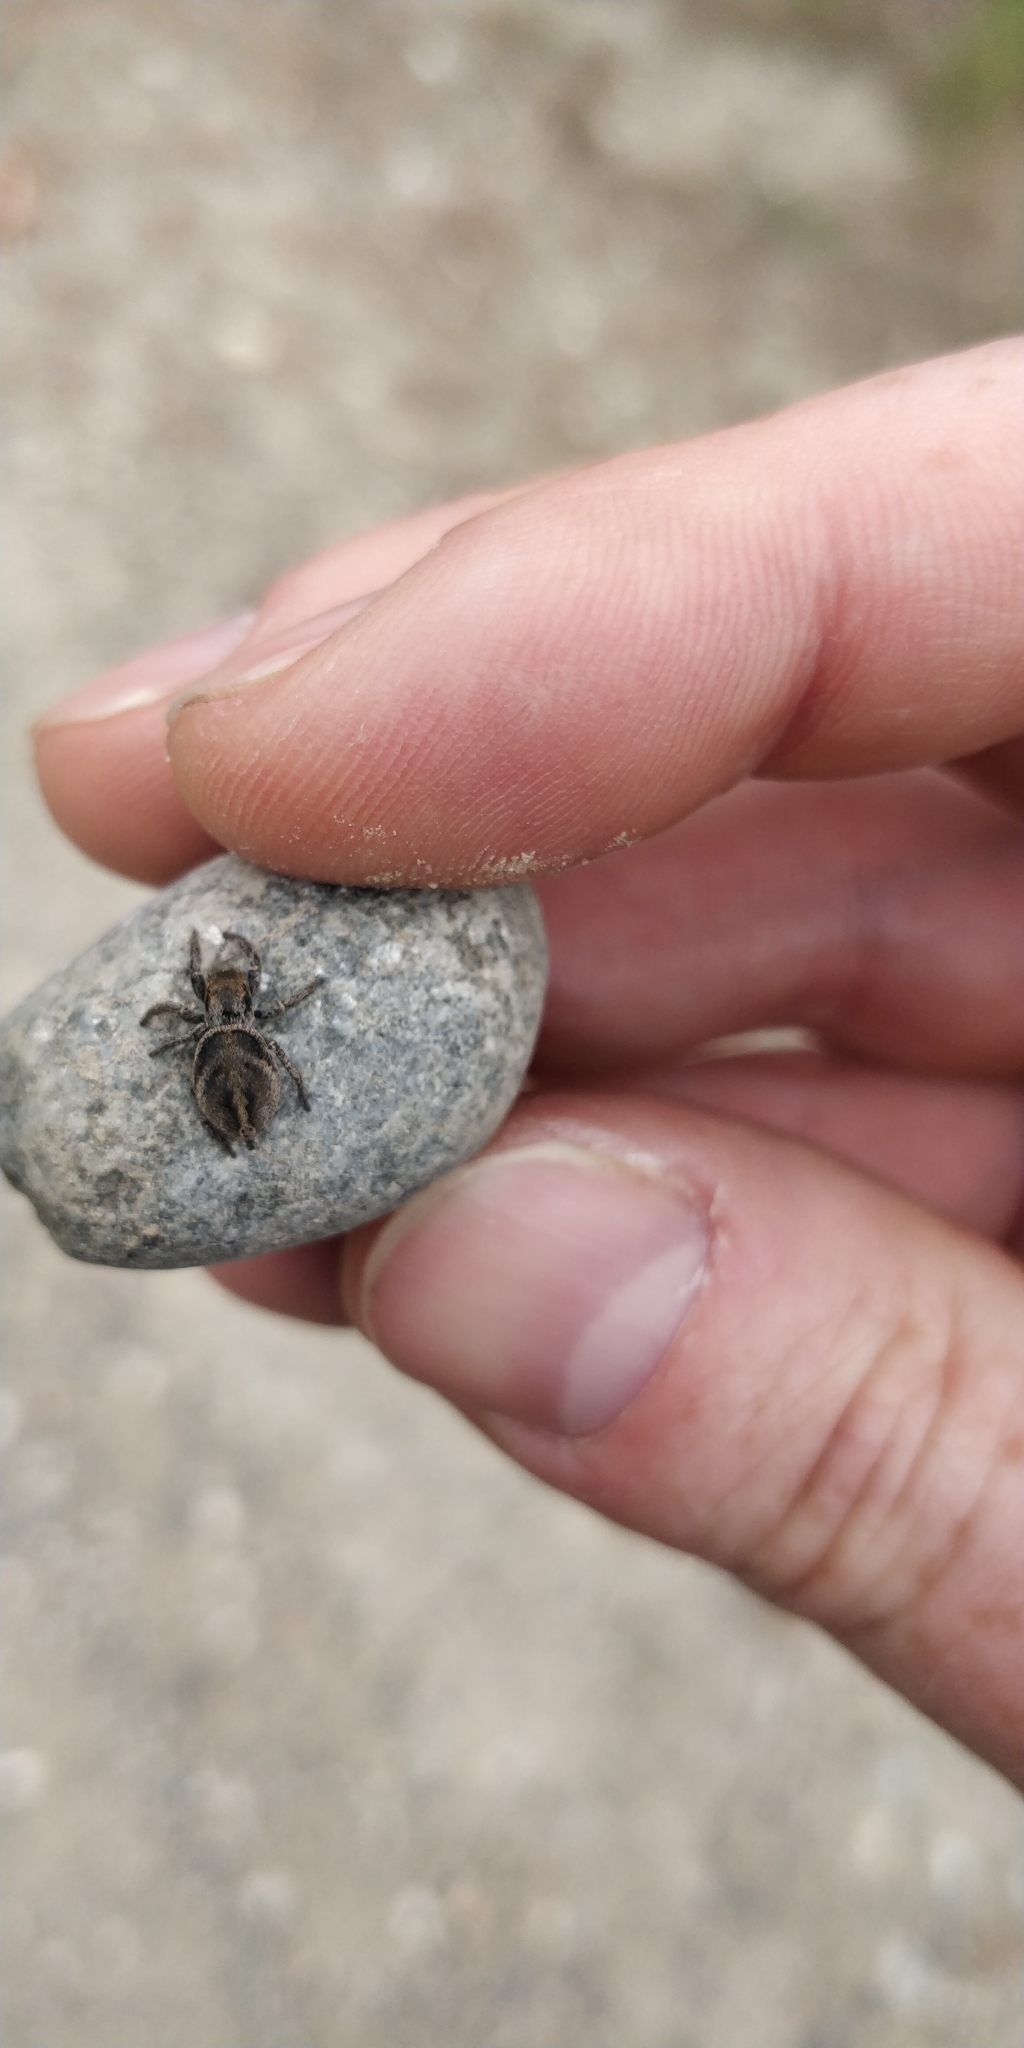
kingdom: Animalia
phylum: Arthropoda
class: Arachnida
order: Araneae
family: Salticidae
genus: Habronattus
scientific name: Habronattus festus
